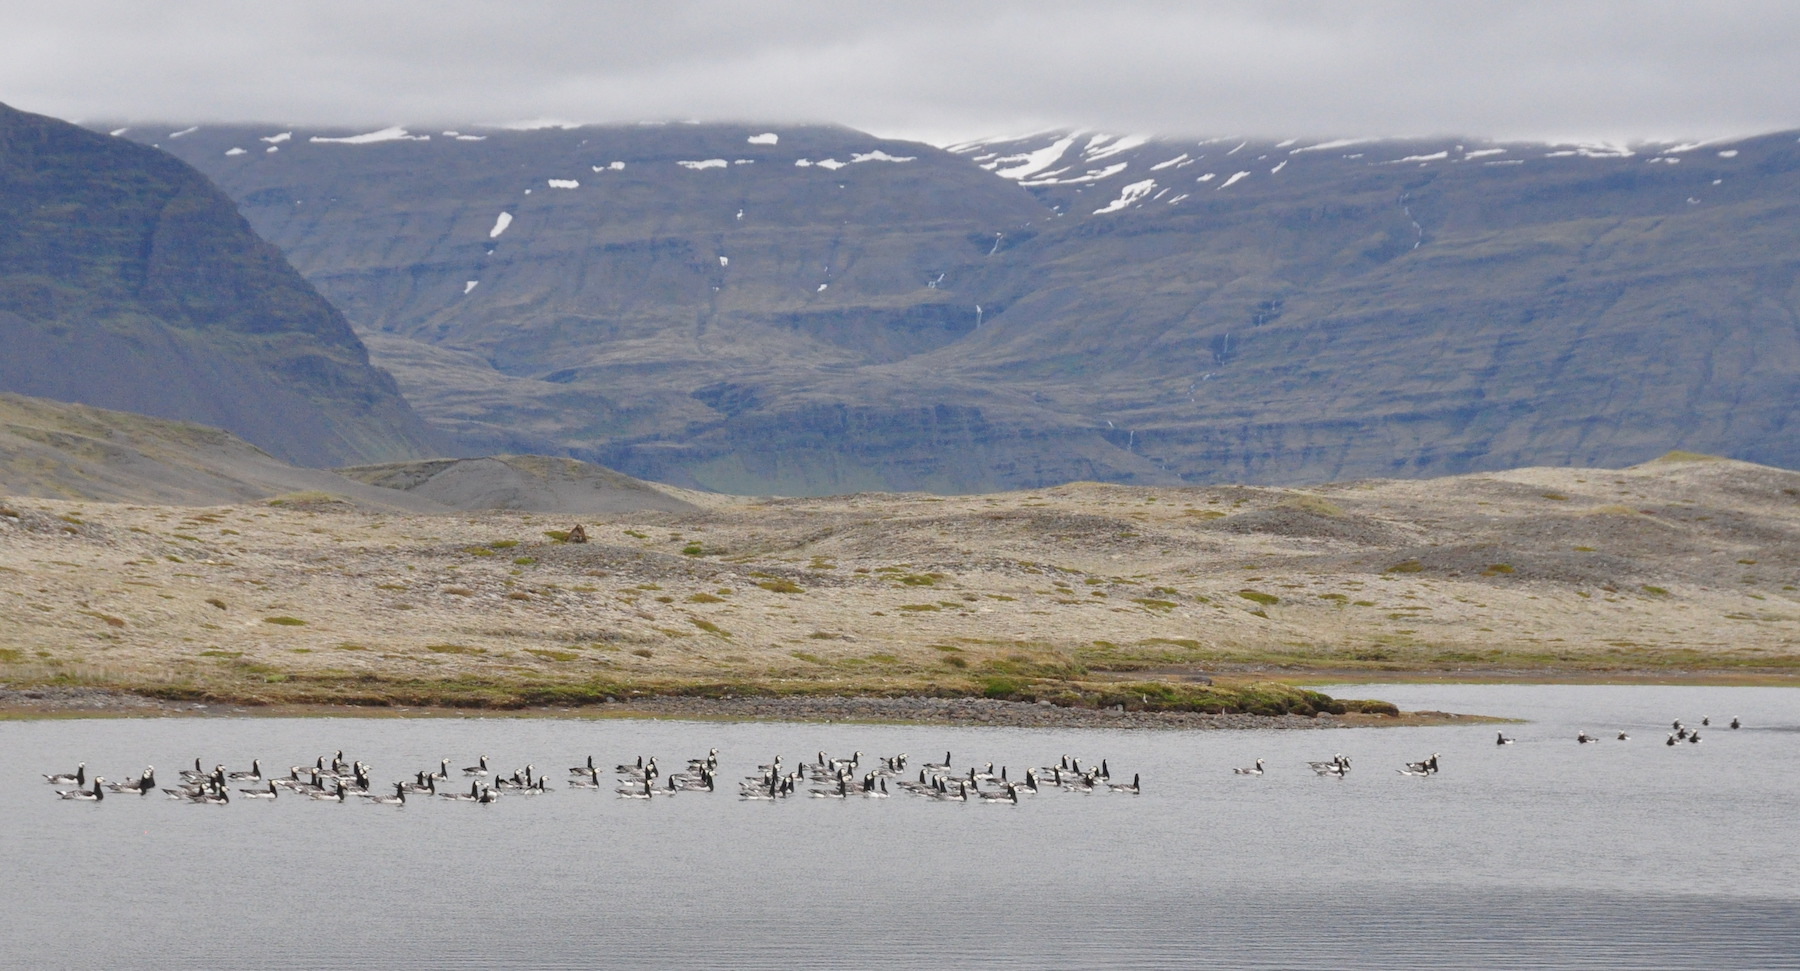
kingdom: Animalia
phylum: Chordata
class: Aves
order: Anseriformes
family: Anatidae
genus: Branta
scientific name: Branta leucopsis
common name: Barnacle goose
